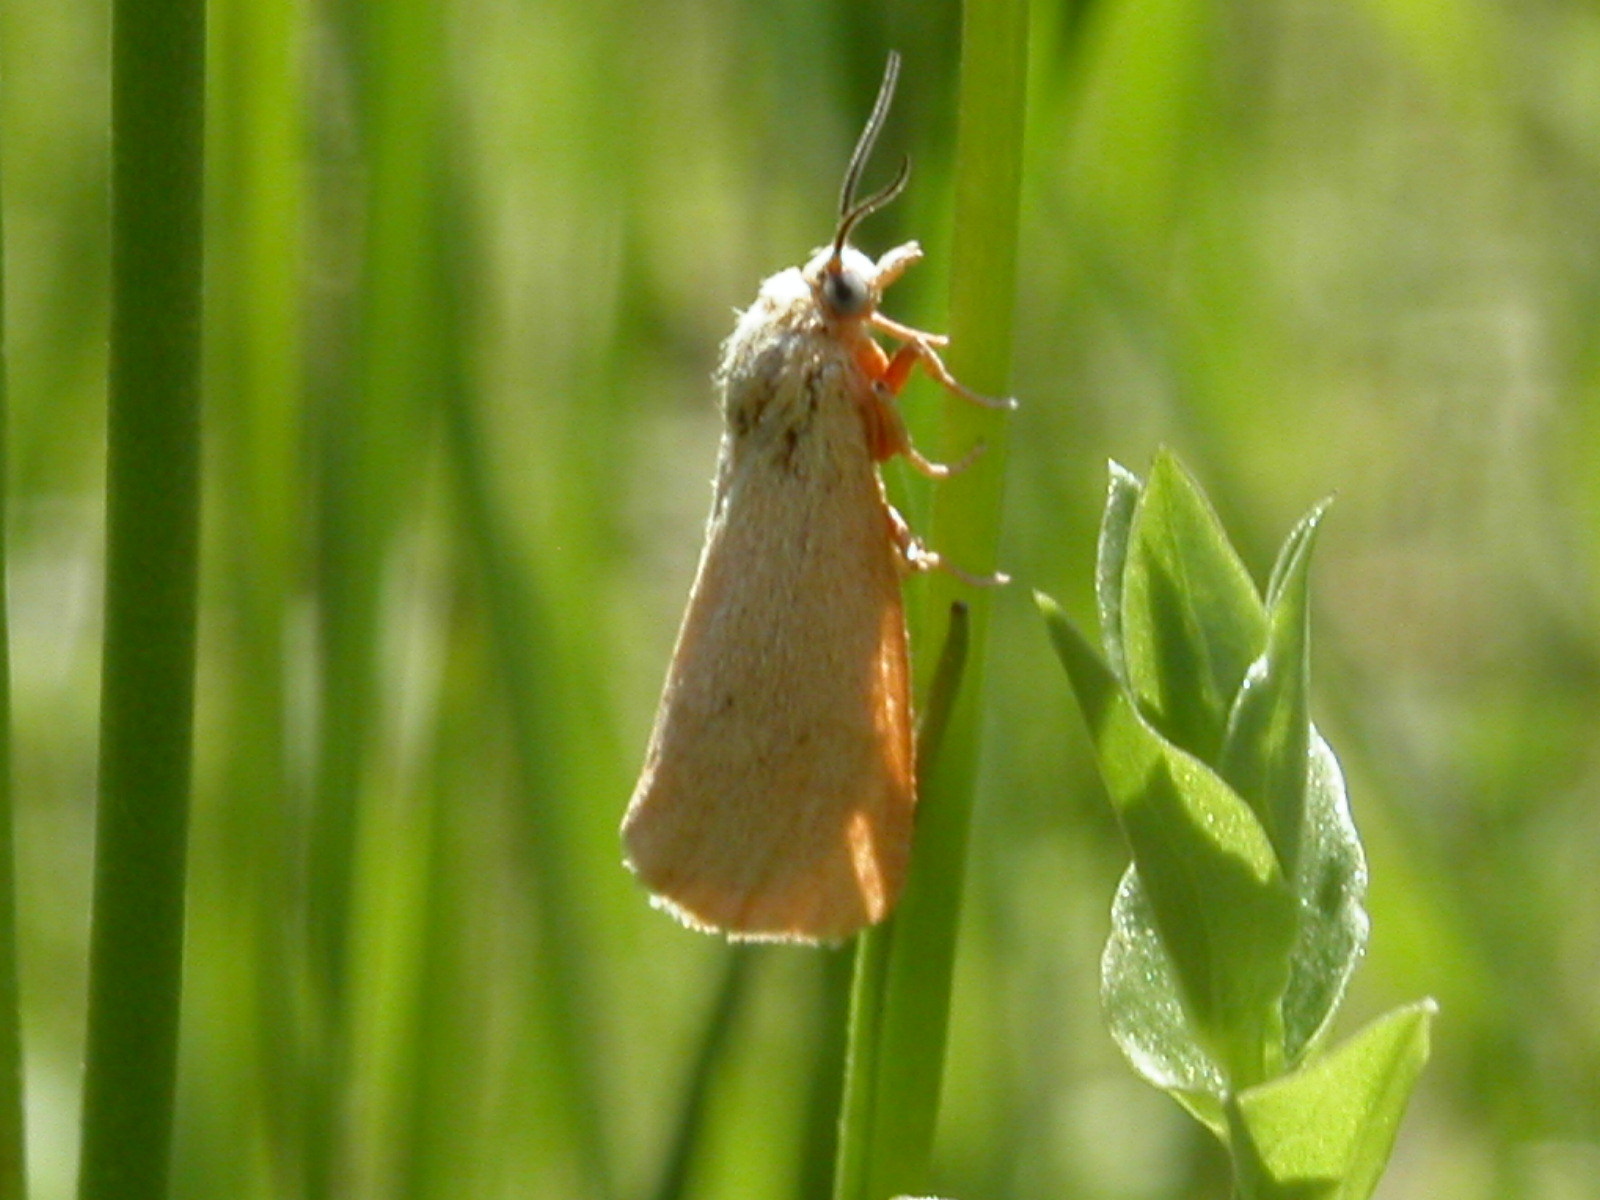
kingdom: Animalia
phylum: Arthropoda
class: Insecta
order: Lepidoptera
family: Erebidae
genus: Virbia
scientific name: Virbia aurantiaca
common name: Orange virbia moth
